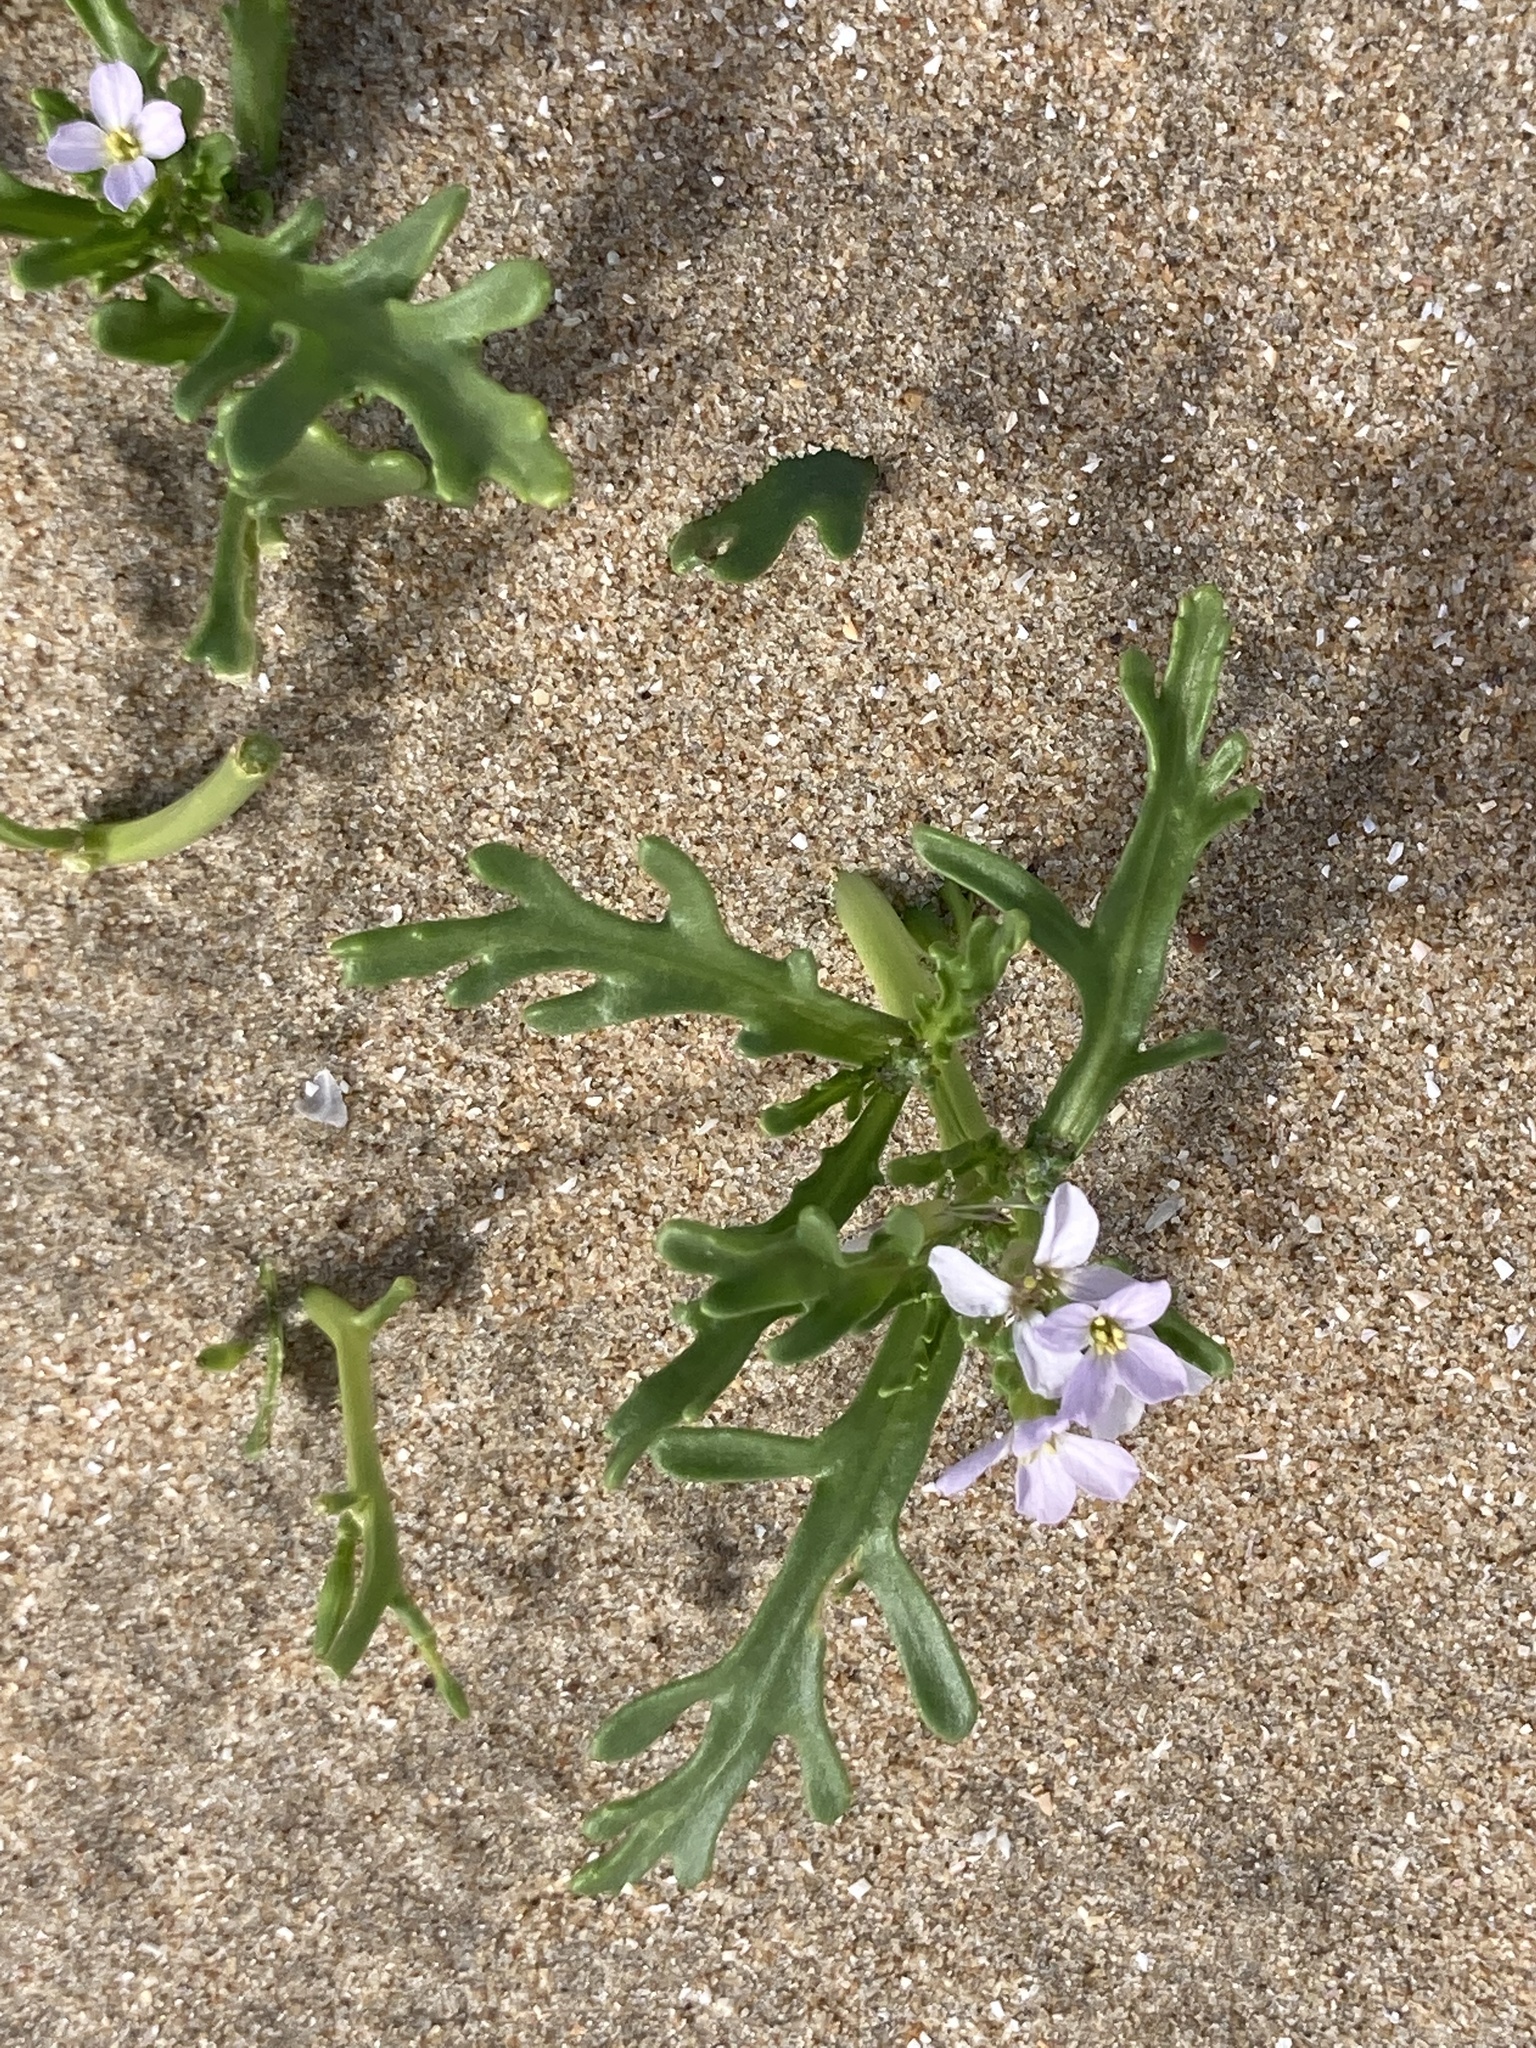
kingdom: Plantae
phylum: Tracheophyta
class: Magnoliopsida
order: Brassicales
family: Brassicaceae
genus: Cakile
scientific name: Cakile maritima
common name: Sea rocket
